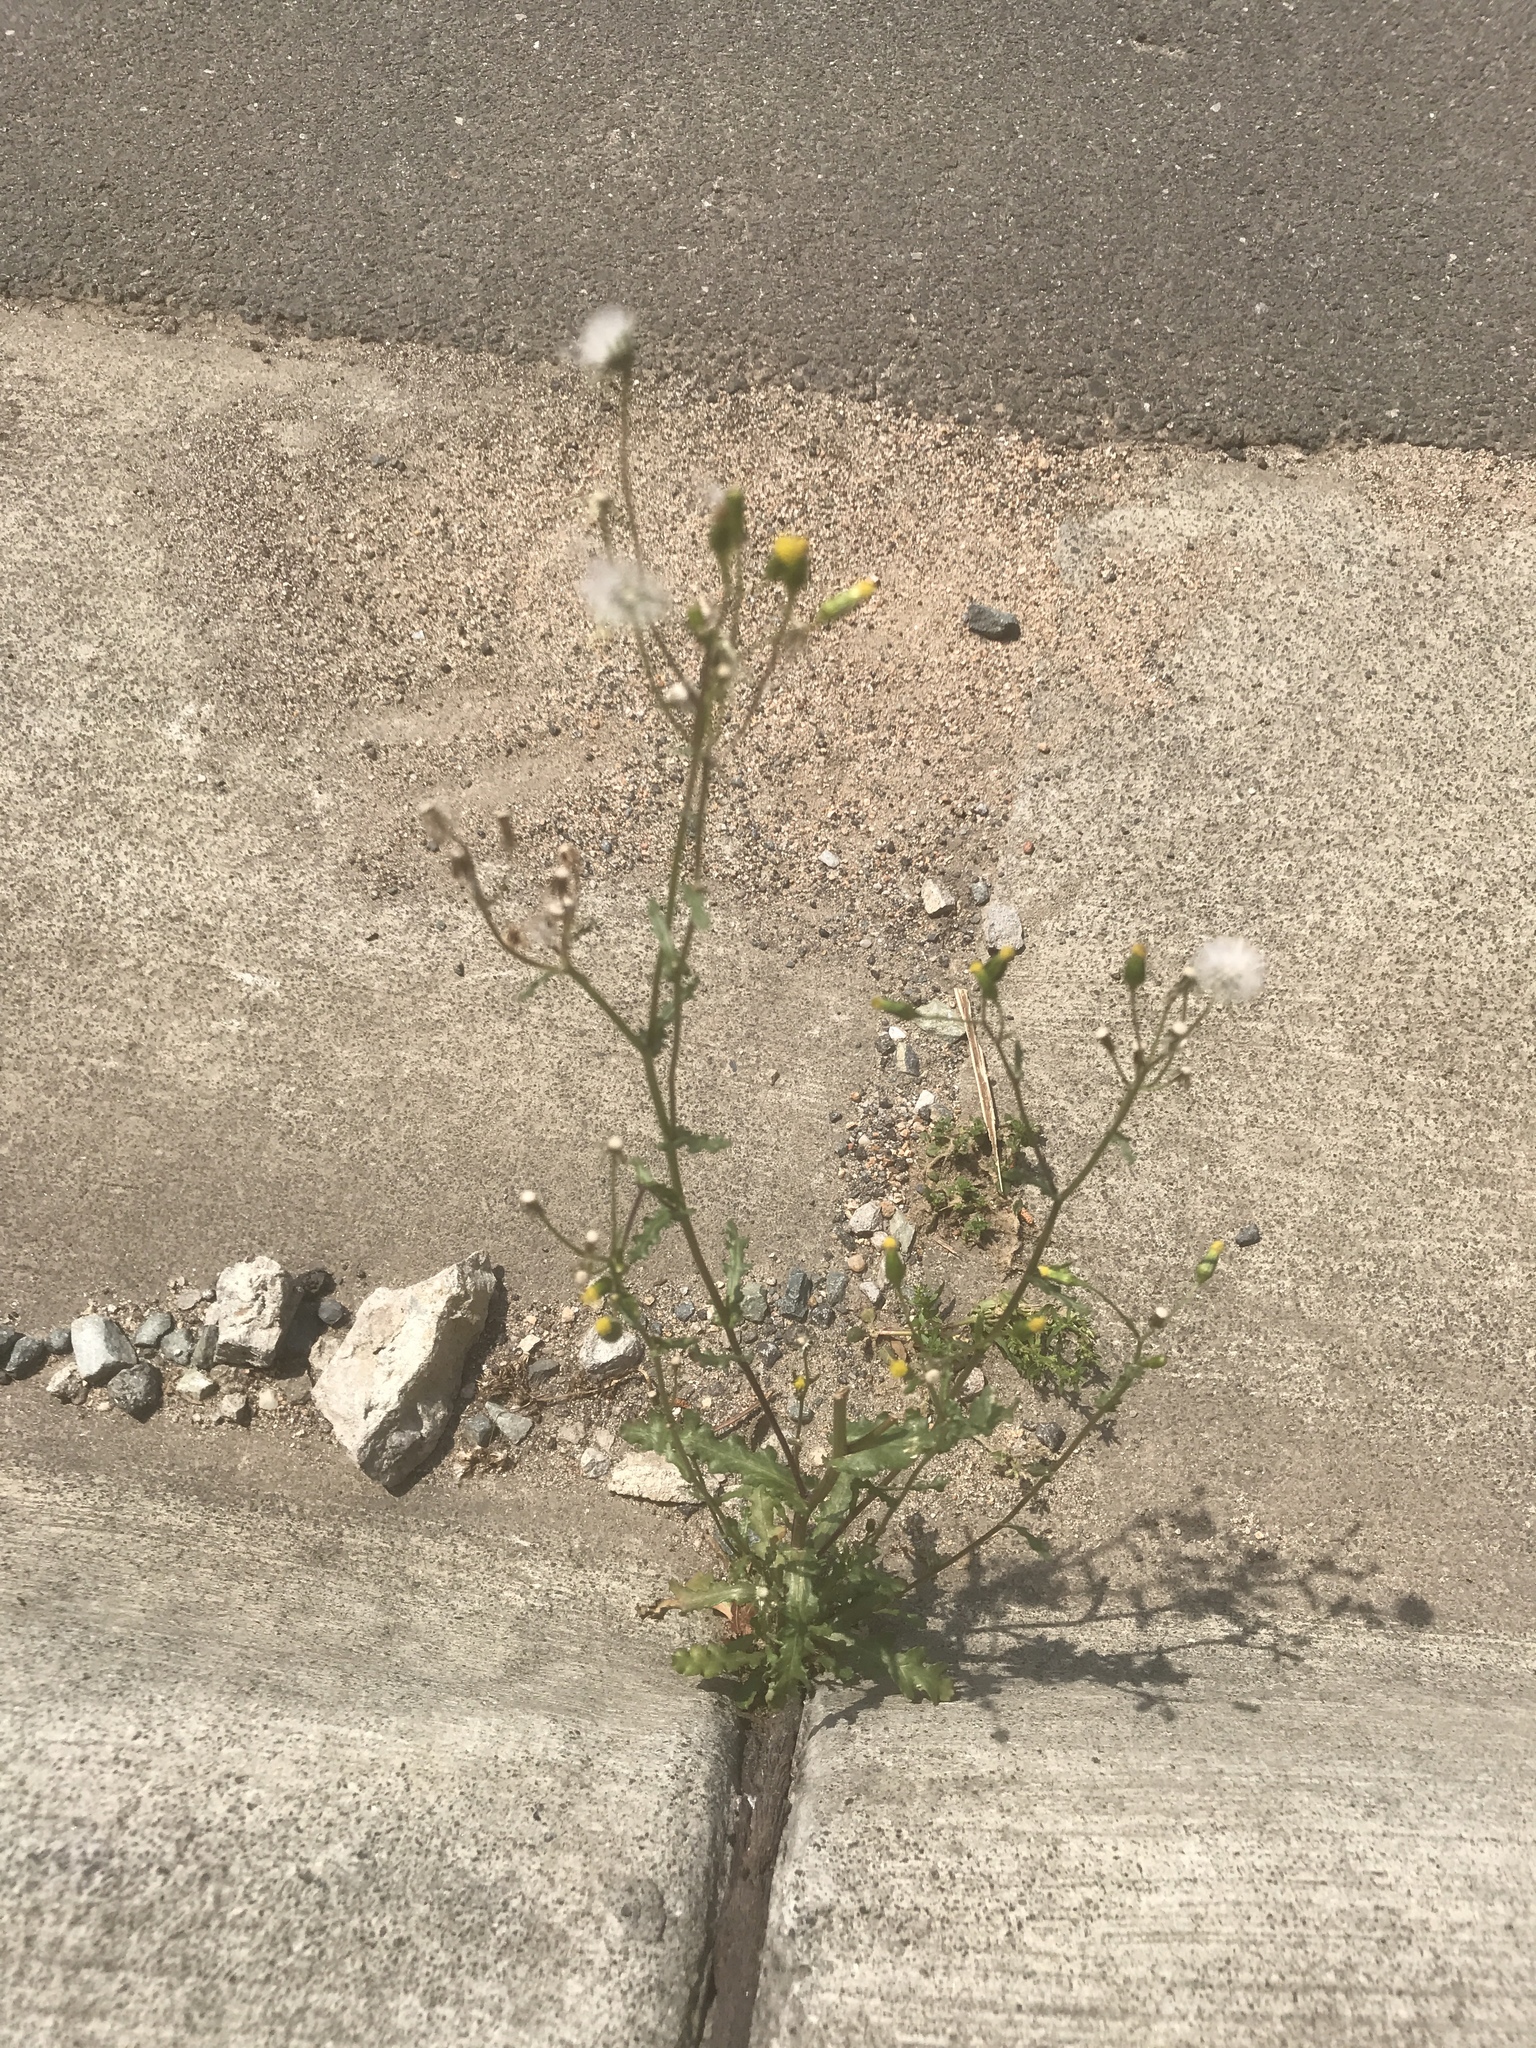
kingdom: Plantae
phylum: Tracheophyta
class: Magnoliopsida
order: Asterales
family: Asteraceae
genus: Senecio
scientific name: Senecio vulgaris
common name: Old-man-in-the-spring
